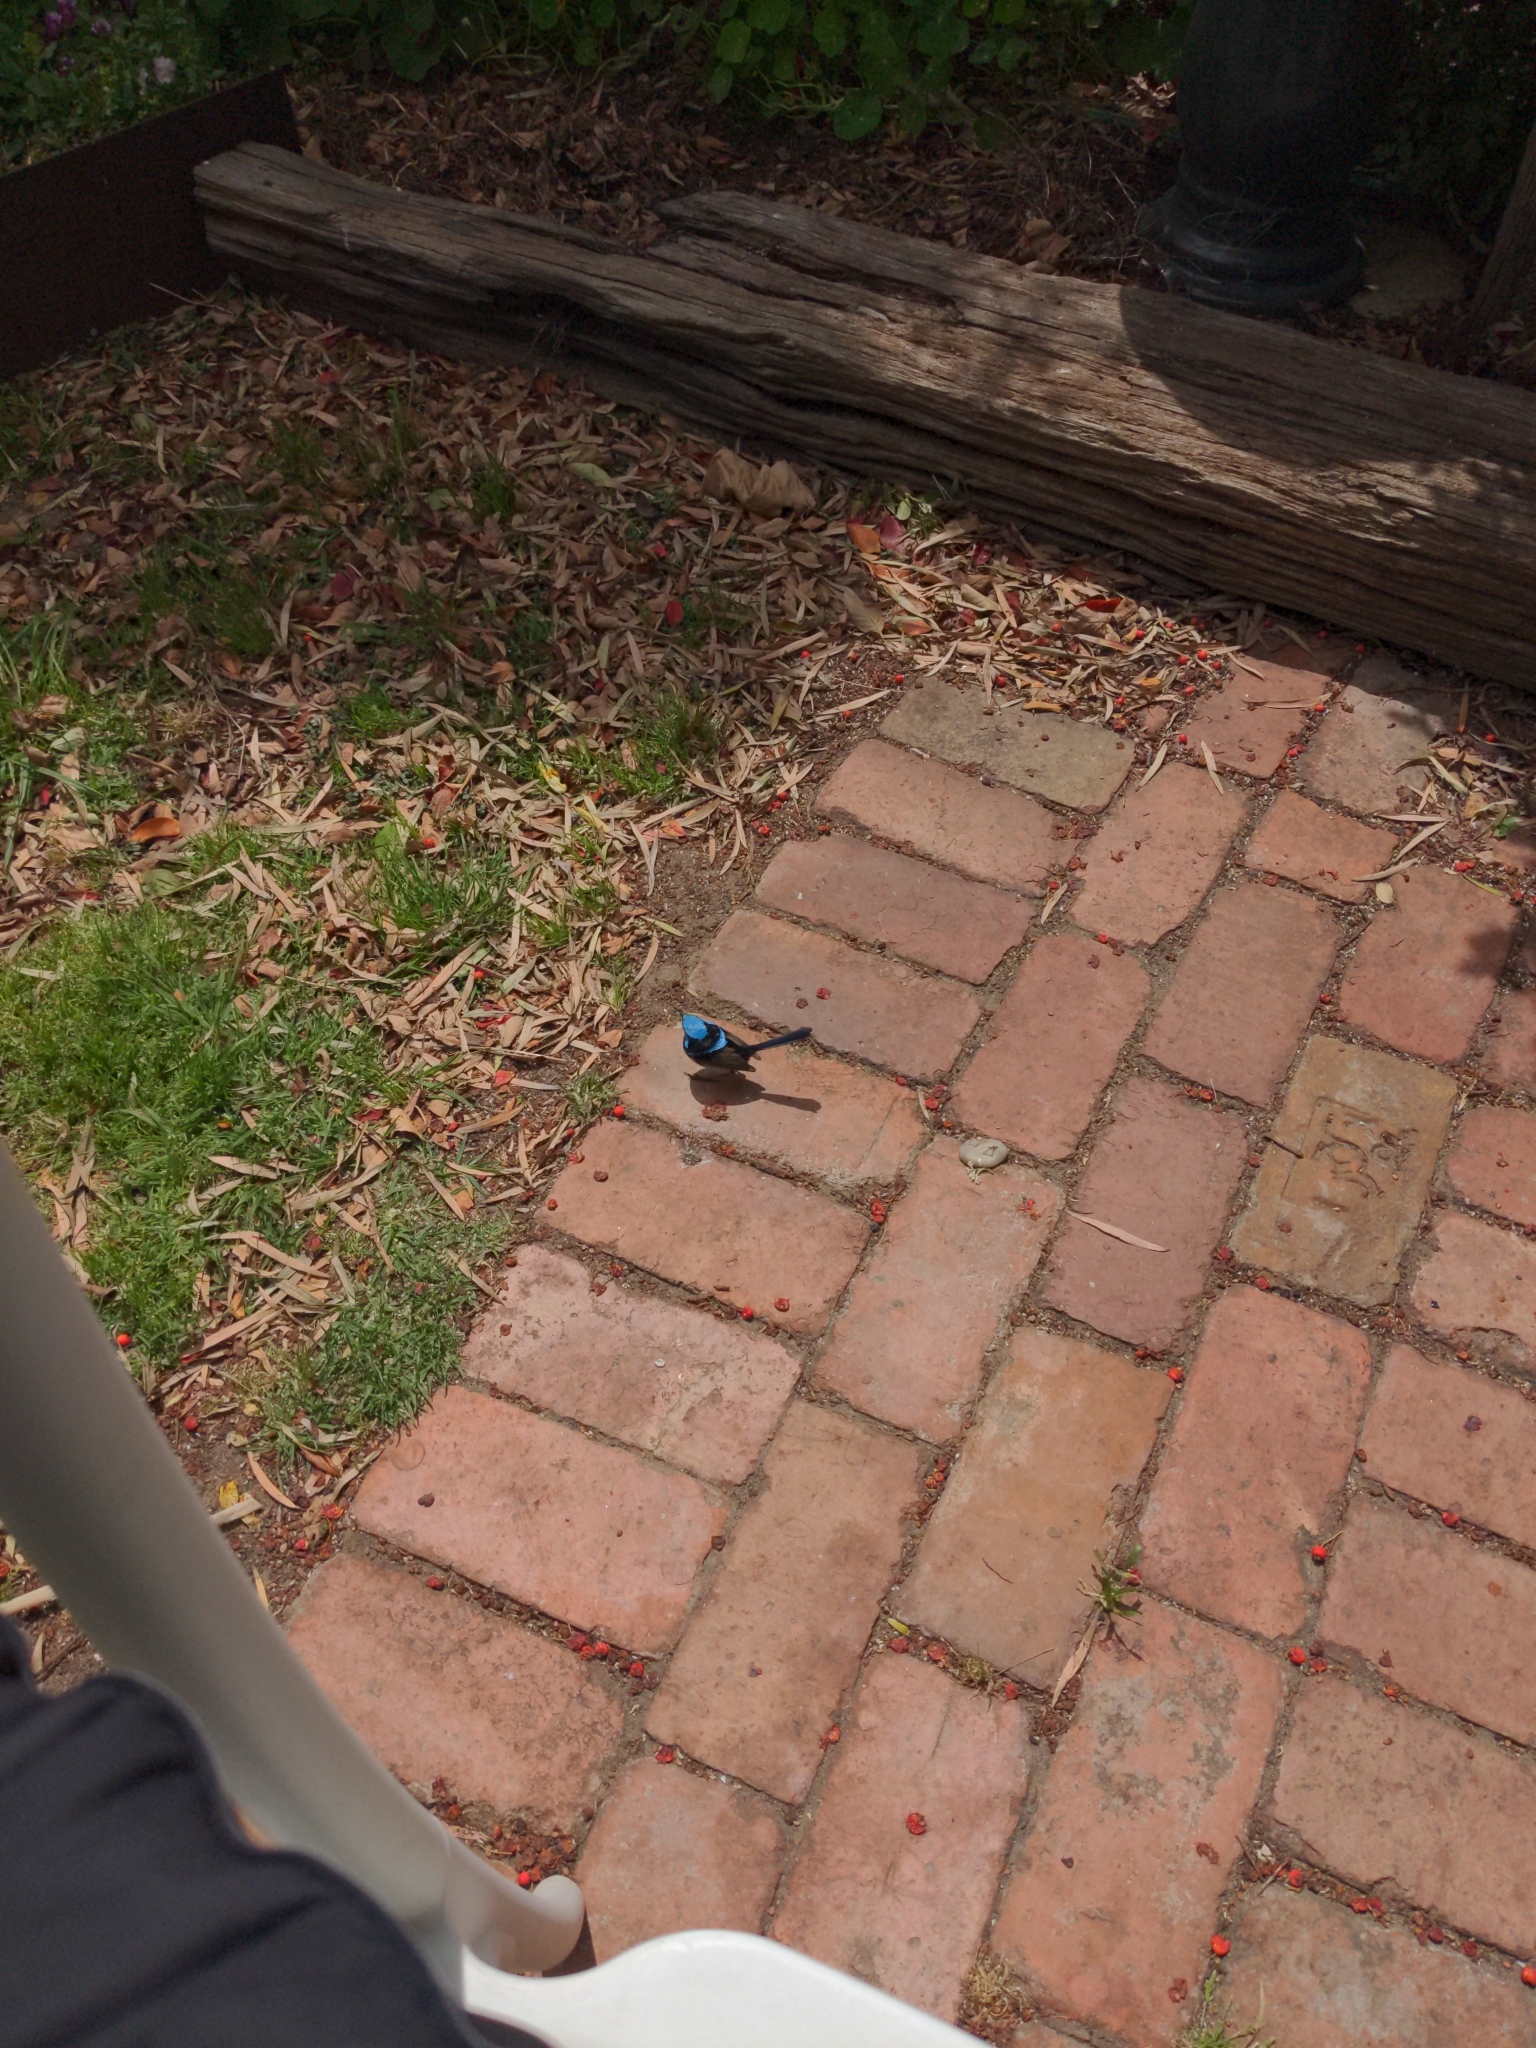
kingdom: Animalia
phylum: Chordata
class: Aves
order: Passeriformes
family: Maluridae
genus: Malurus
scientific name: Malurus cyaneus
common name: Superb fairywren
